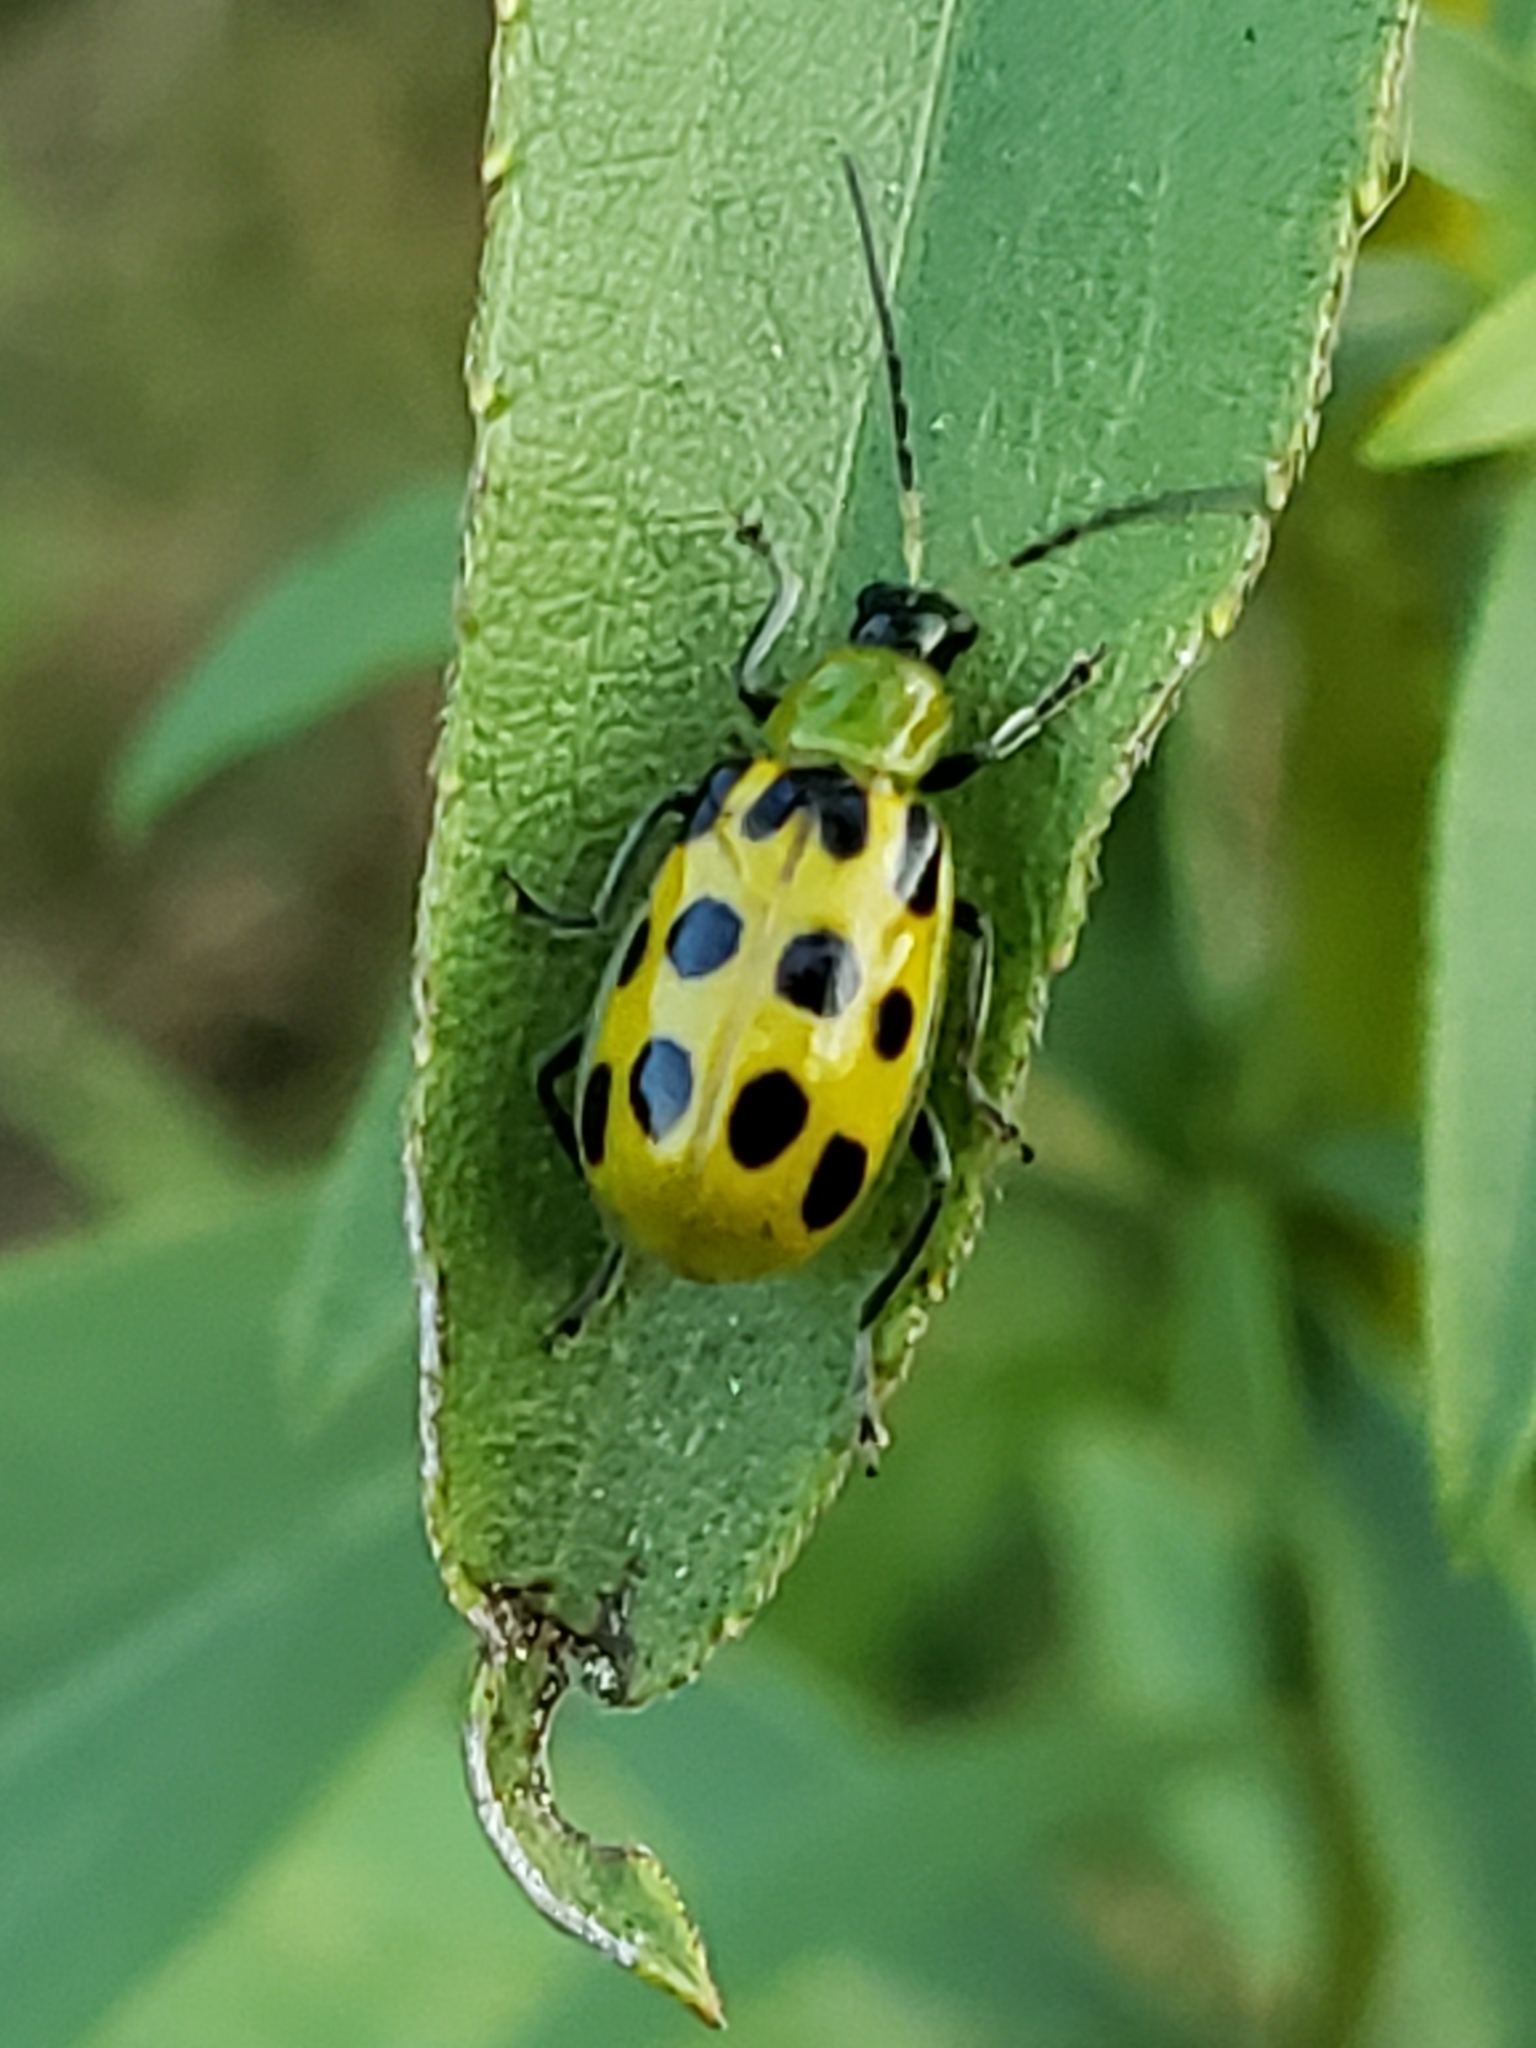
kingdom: Animalia
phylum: Arthropoda
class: Insecta
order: Coleoptera
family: Chrysomelidae
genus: Diabrotica
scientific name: Diabrotica undecimpunctata
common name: Spotted cucumber beetle
